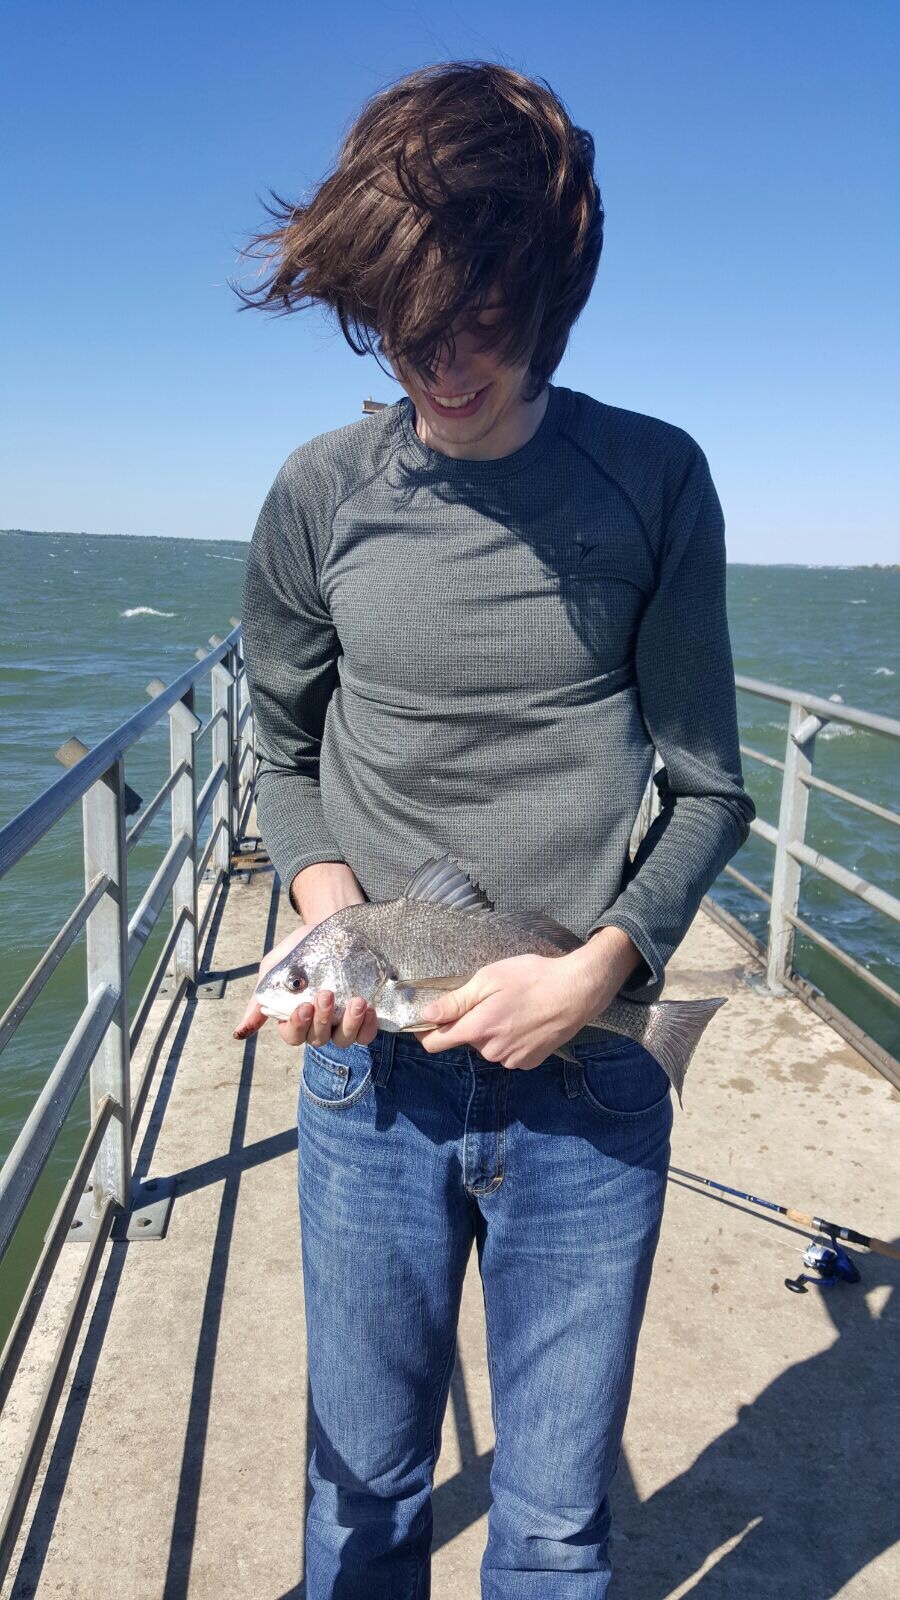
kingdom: Animalia
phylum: Chordata
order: Perciformes
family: Sciaenidae
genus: Aplodinotus
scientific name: Aplodinotus grunniens
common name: Freshwater drum
